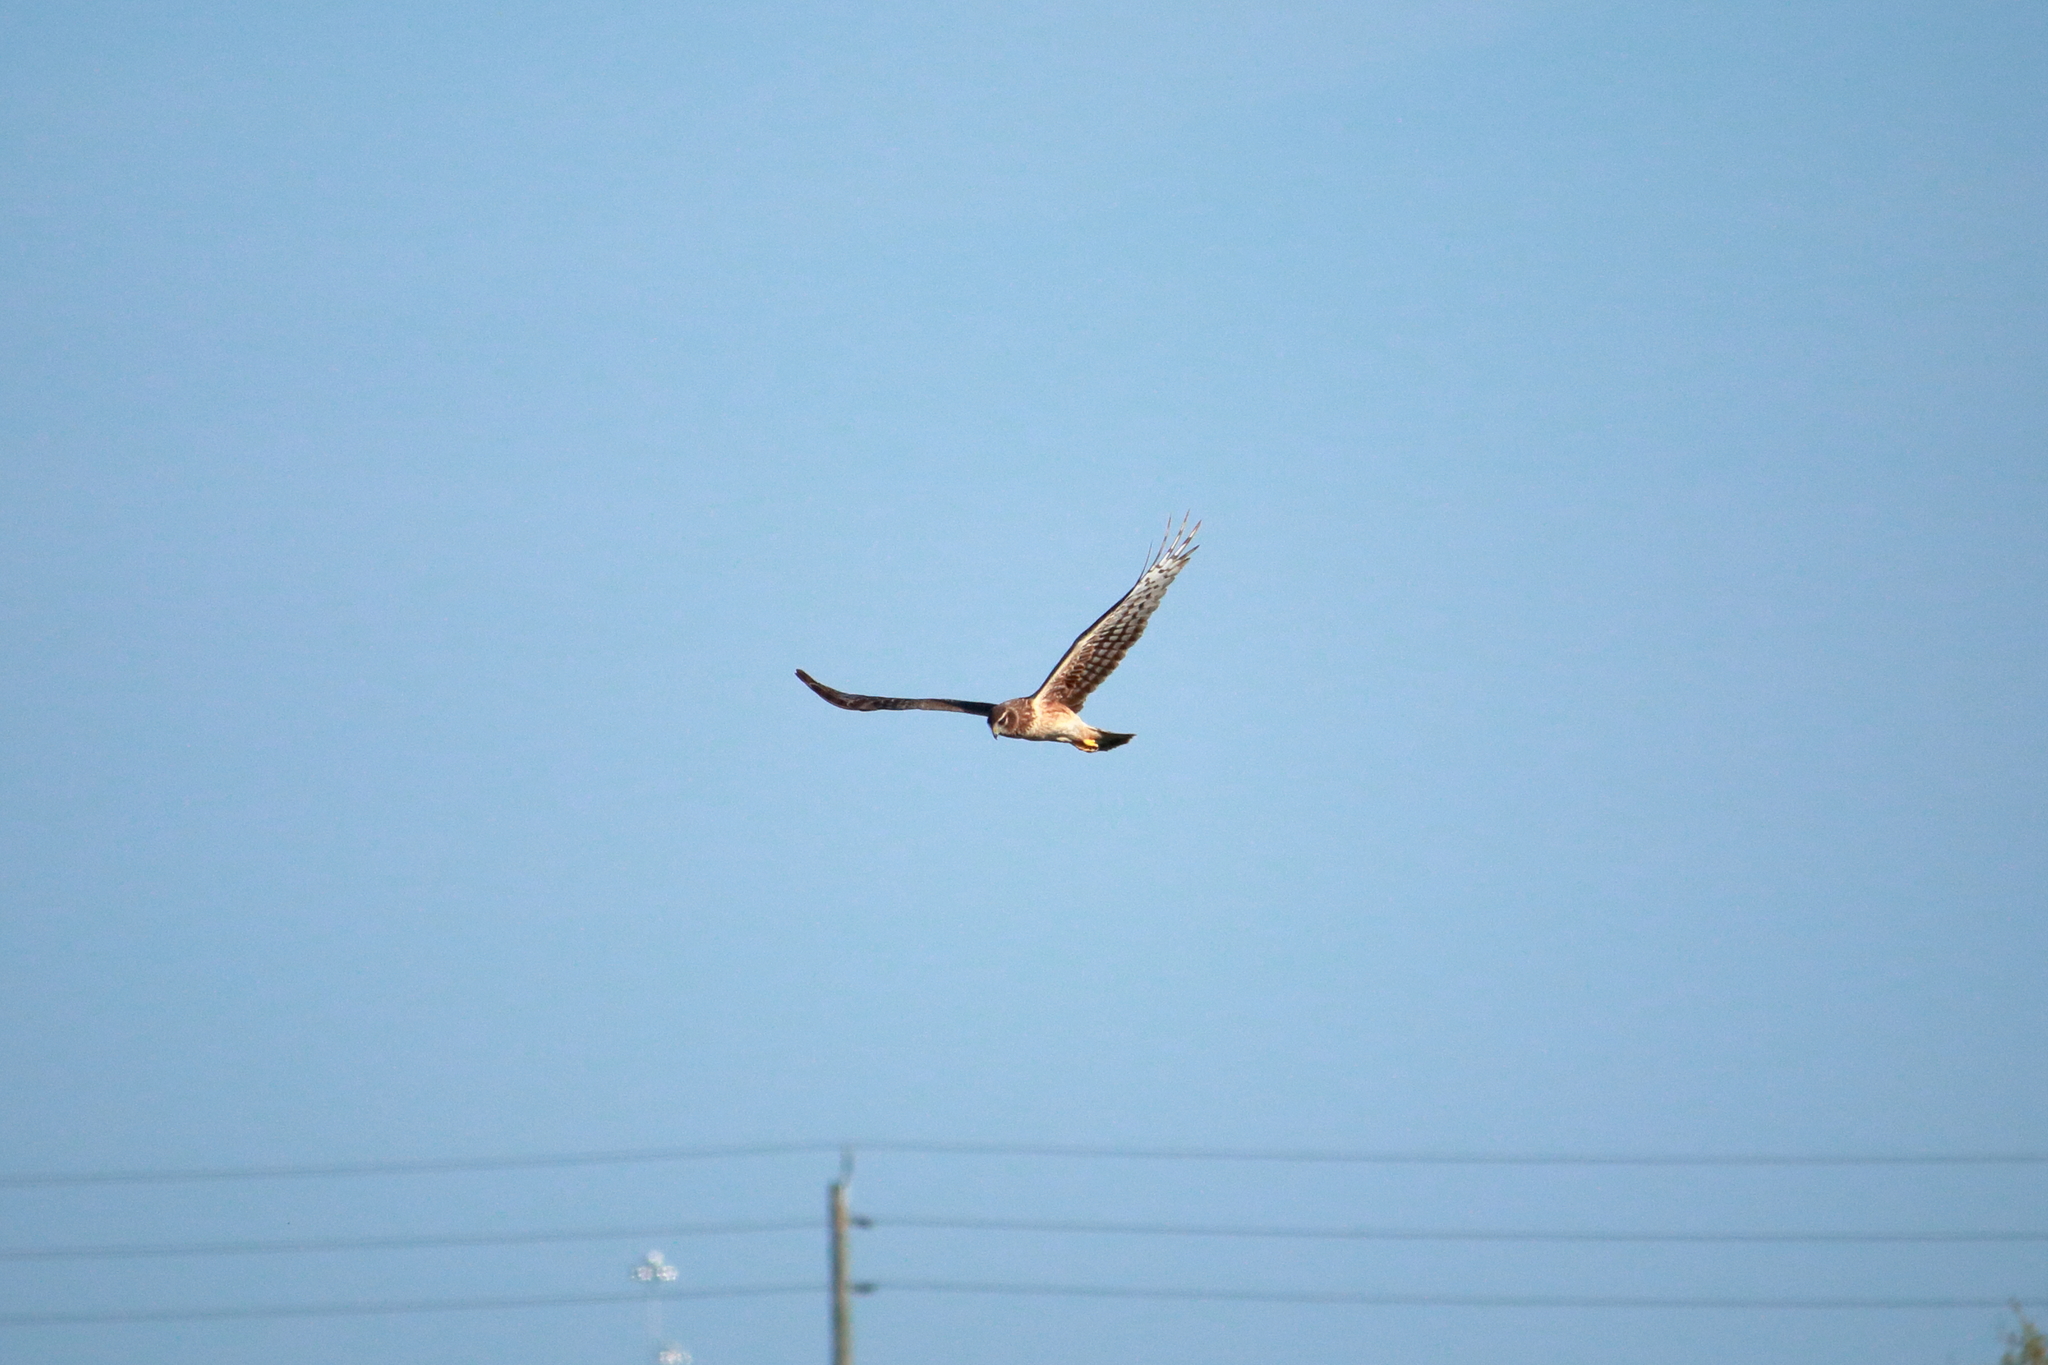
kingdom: Animalia
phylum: Chordata
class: Aves
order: Accipitriformes
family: Accipitridae
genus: Circus
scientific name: Circus cyaneus
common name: Hen harrier
